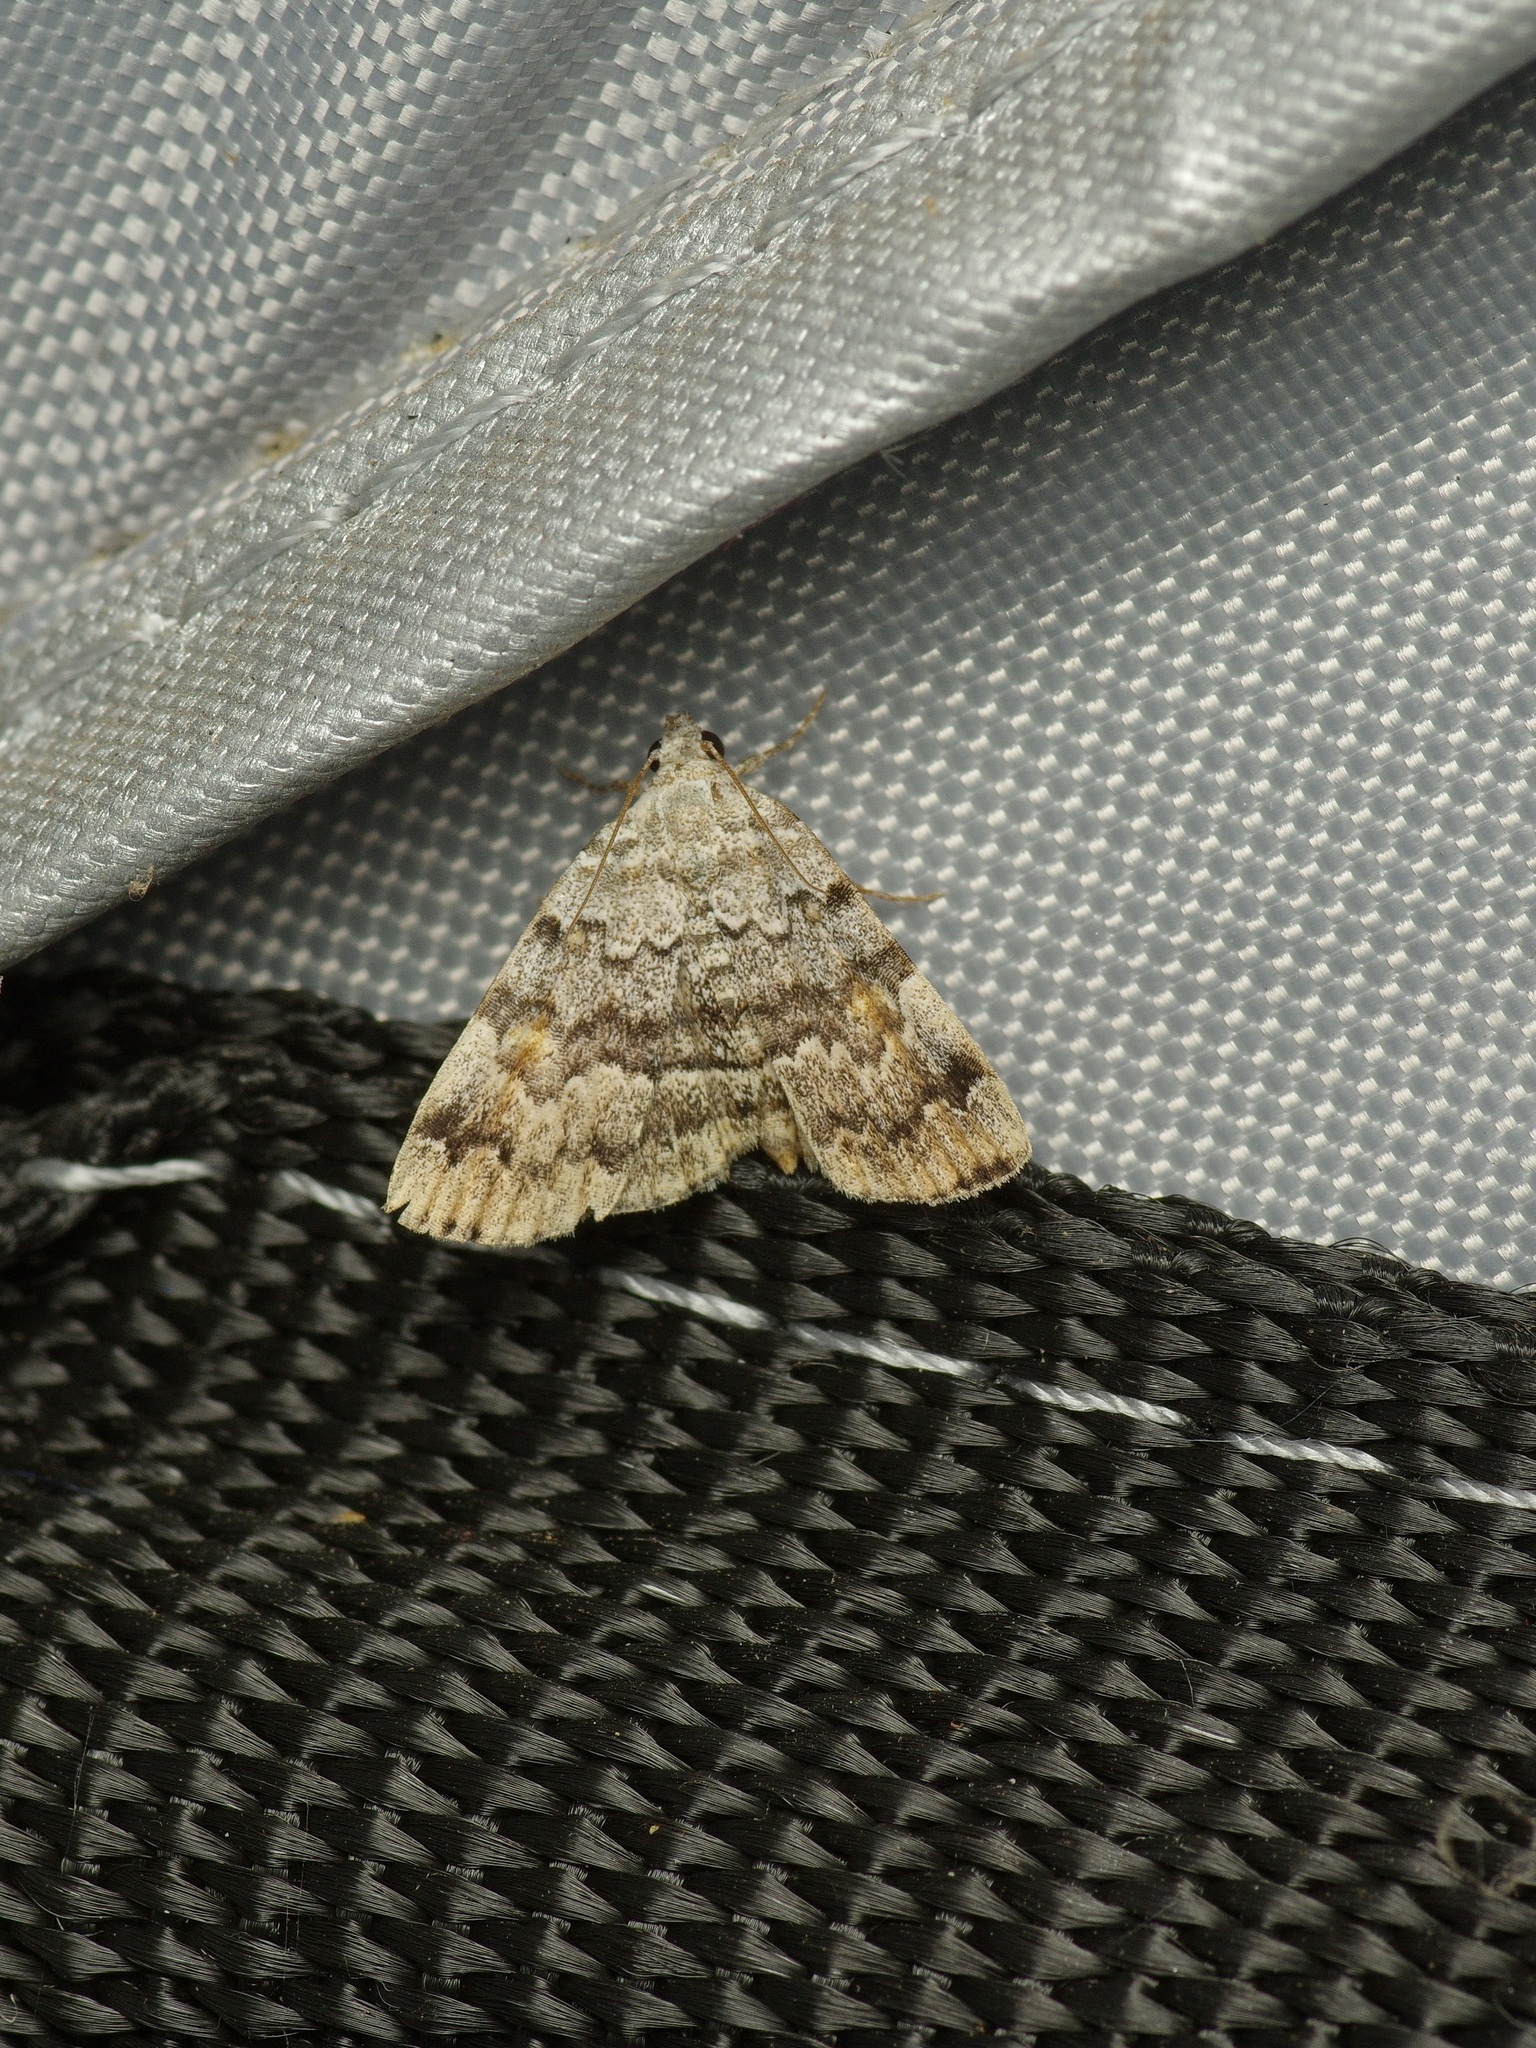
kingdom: Animalia
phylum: Arthropoda
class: Insecta
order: Lepidoptera
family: Erebidae
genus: Idia
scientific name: Idia americalis
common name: American idia moth
